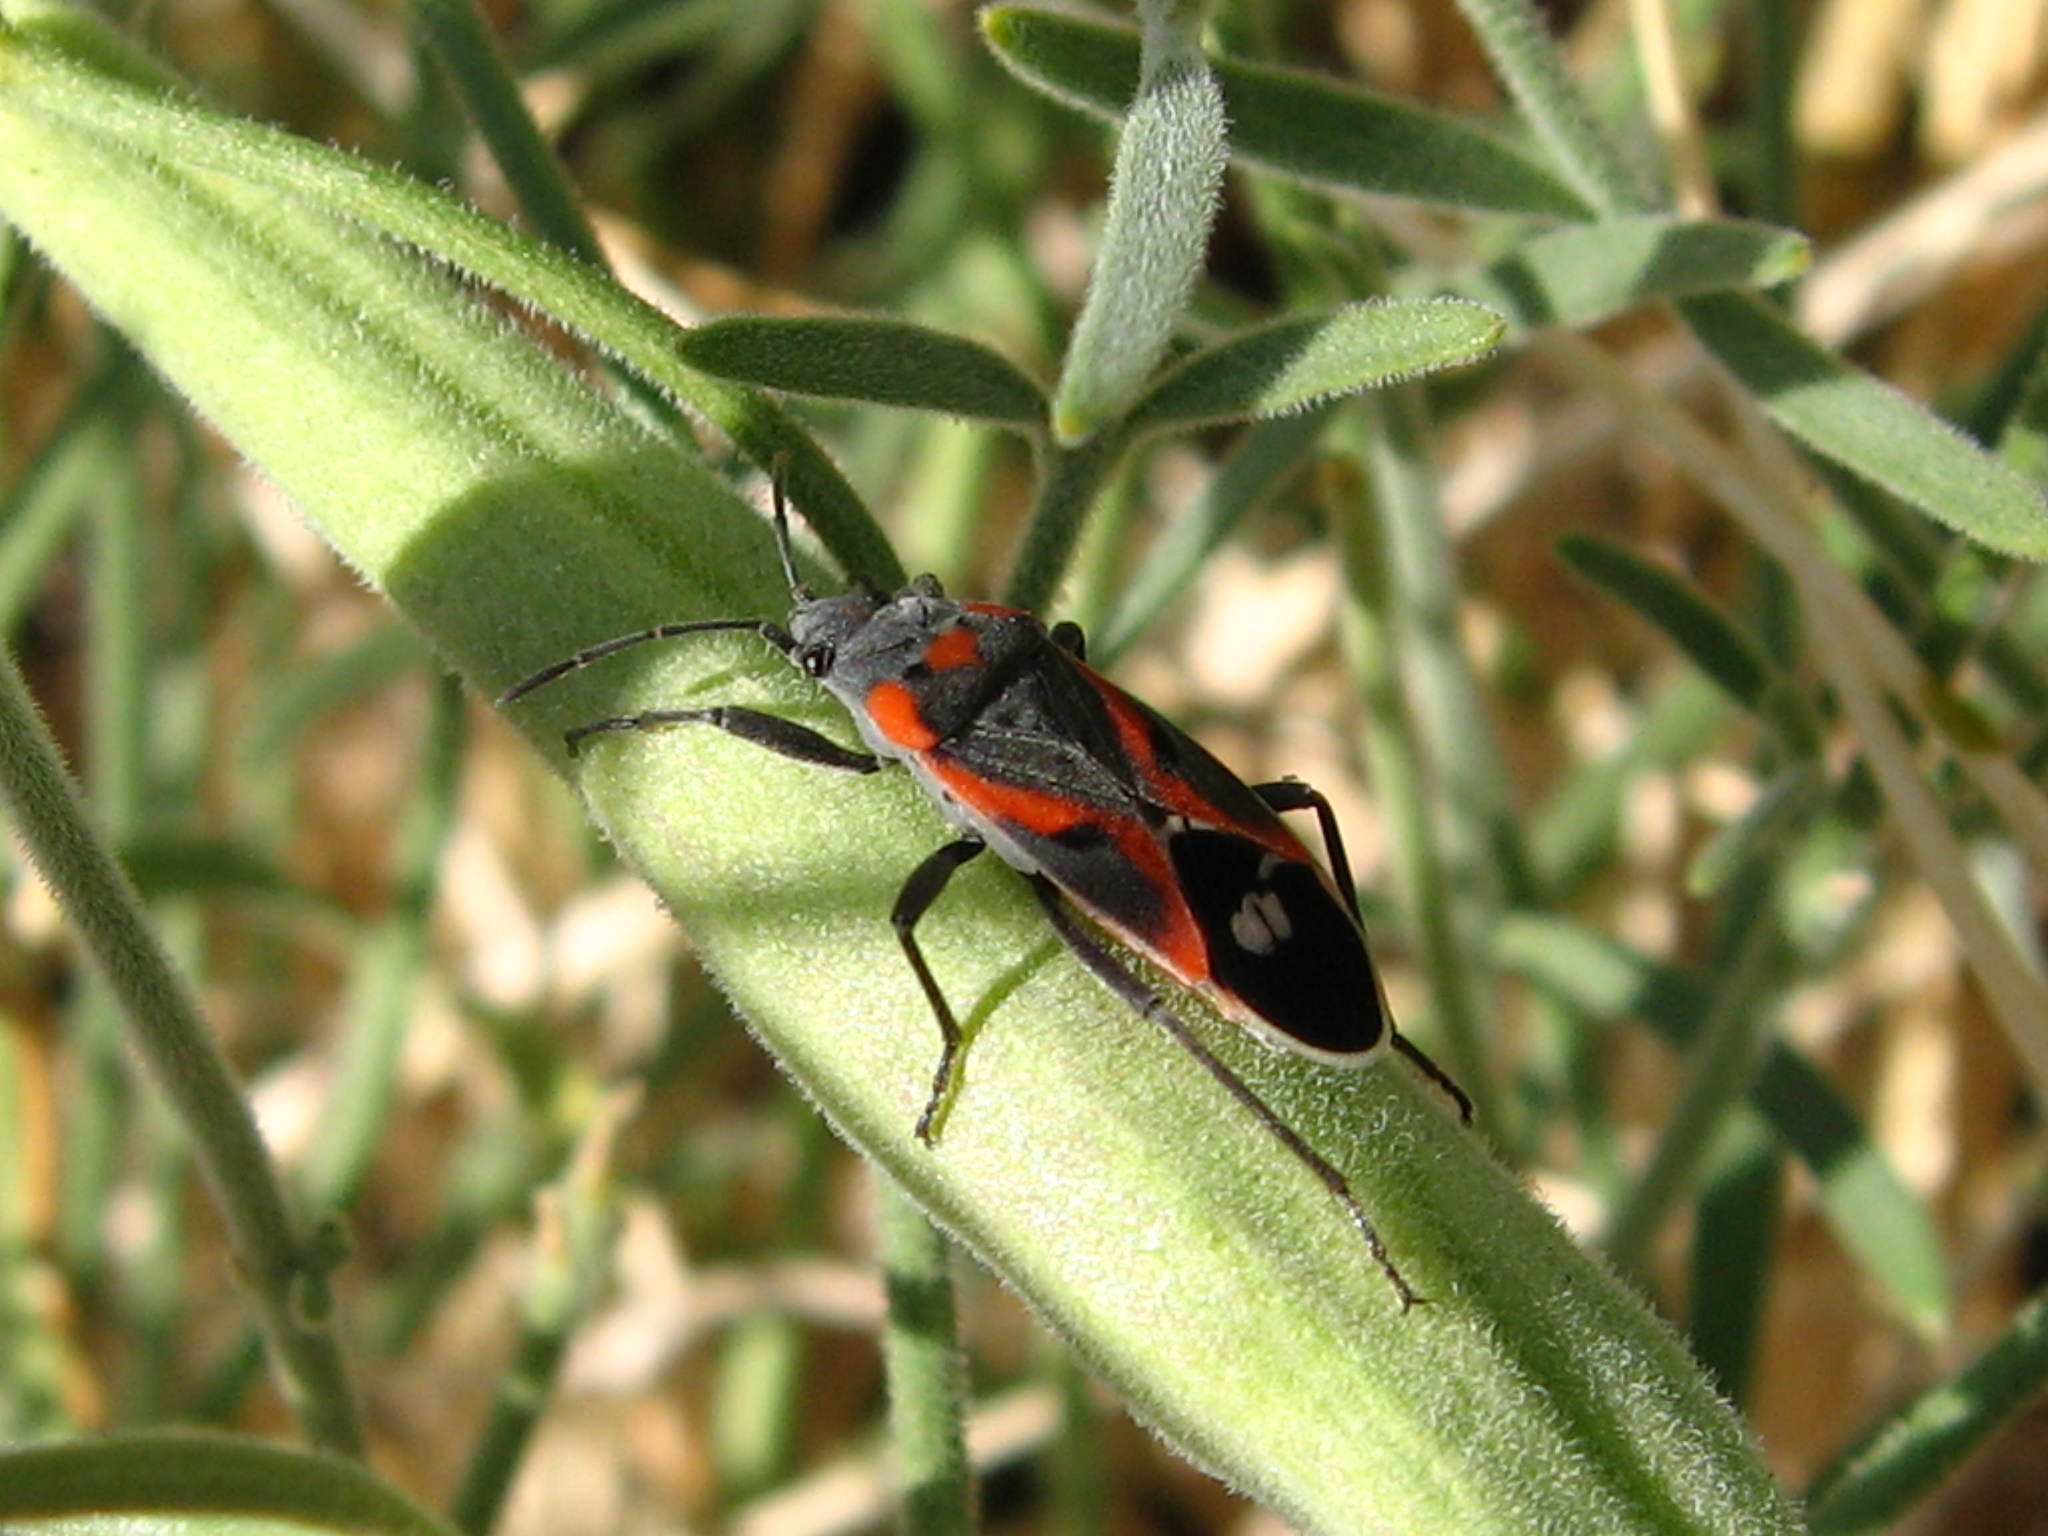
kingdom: Animalia
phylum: Arthropoda
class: Insecta
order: Hemiptera
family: Lygaeidae
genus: Lygaeus
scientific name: Lygaeus kalmii
